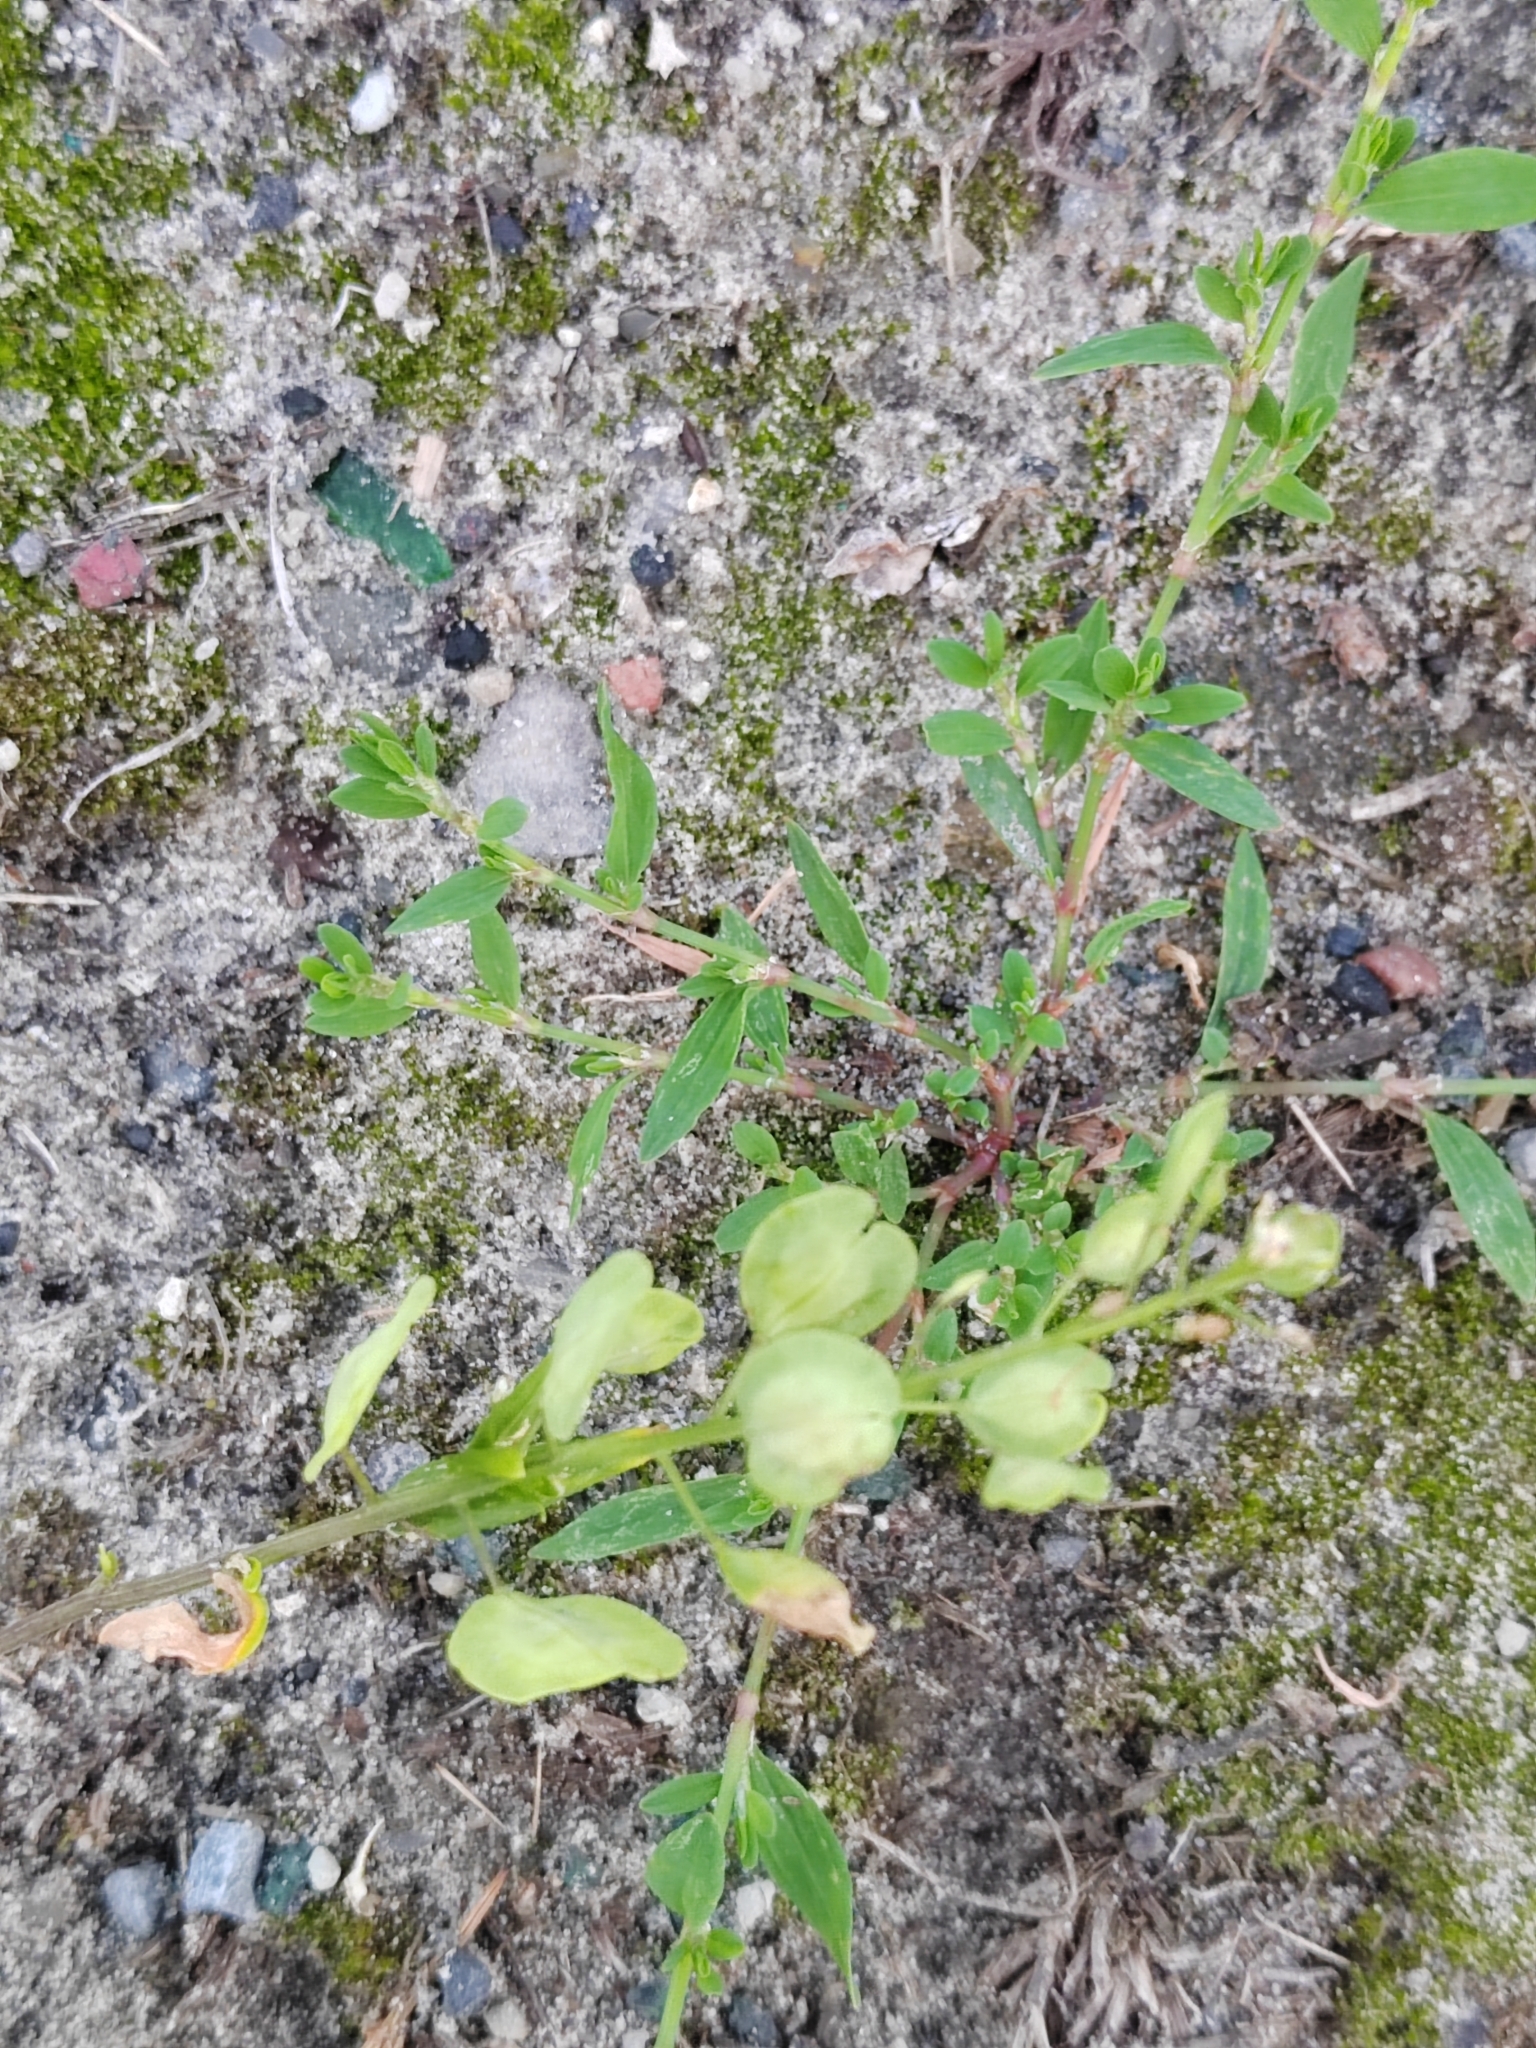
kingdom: Plantae
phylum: Tracheophyta
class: Magnoliopsida
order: Brassicales
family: Brassicaceae
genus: Thlaspi
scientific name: Thlaspi arvense
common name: Field pennycress
